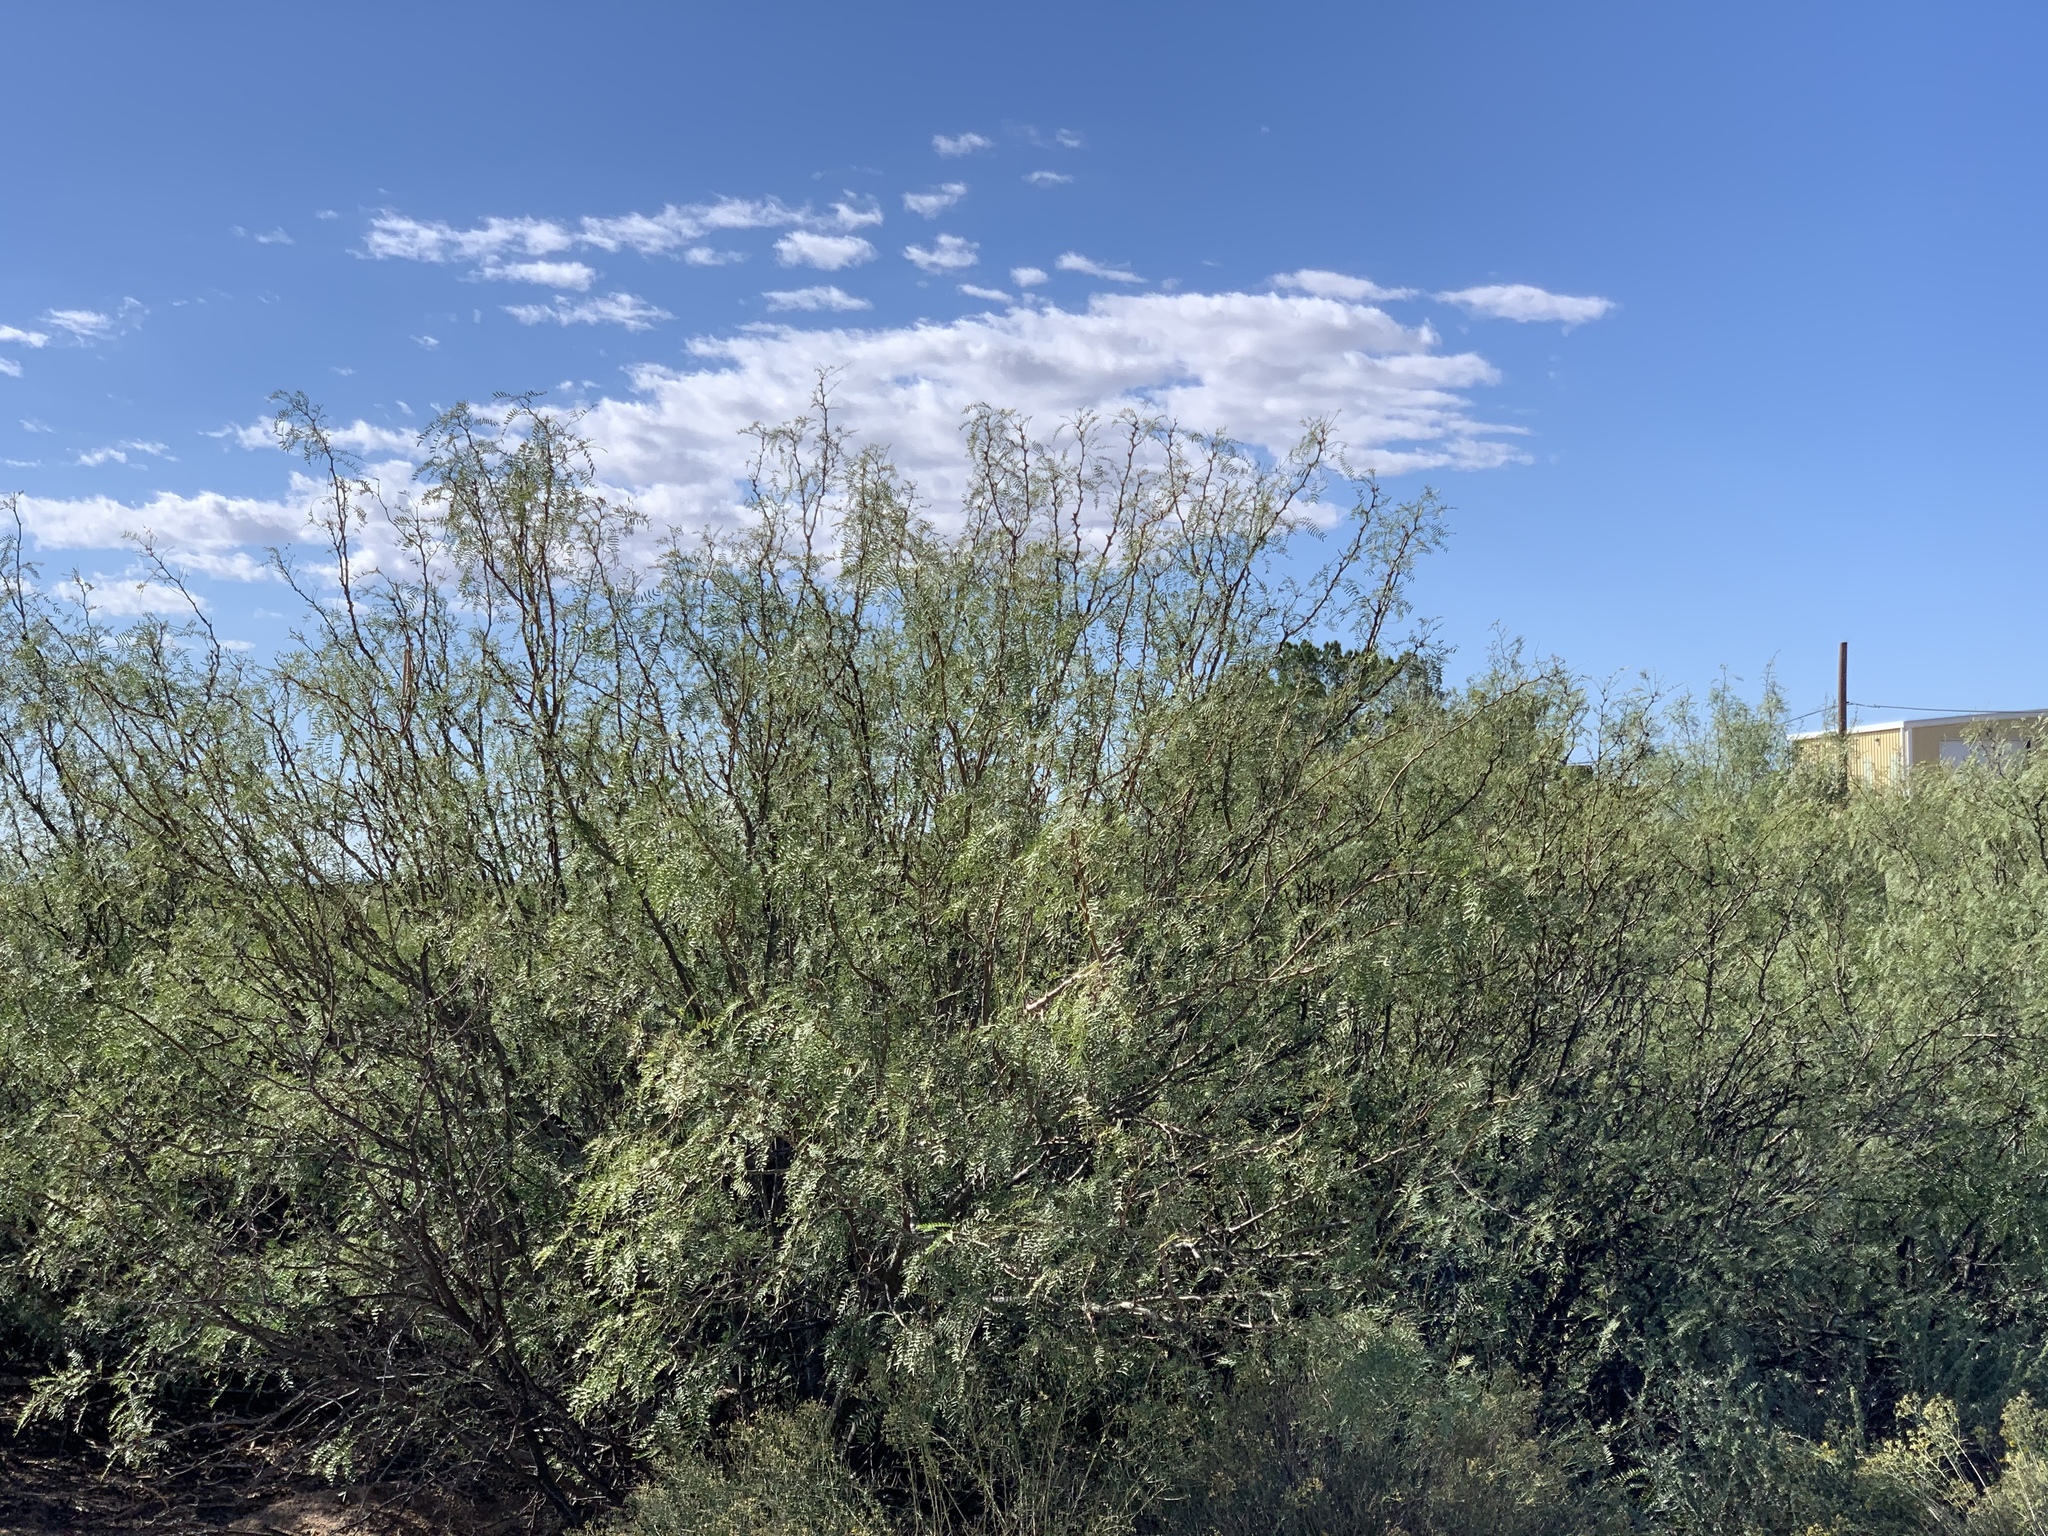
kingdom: Plantae
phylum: Tracheophyta
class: Magnoliopsida
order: Fabales
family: Fabaceae
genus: Prosopis
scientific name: Prosopis glandulosa
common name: Honey mesquite
